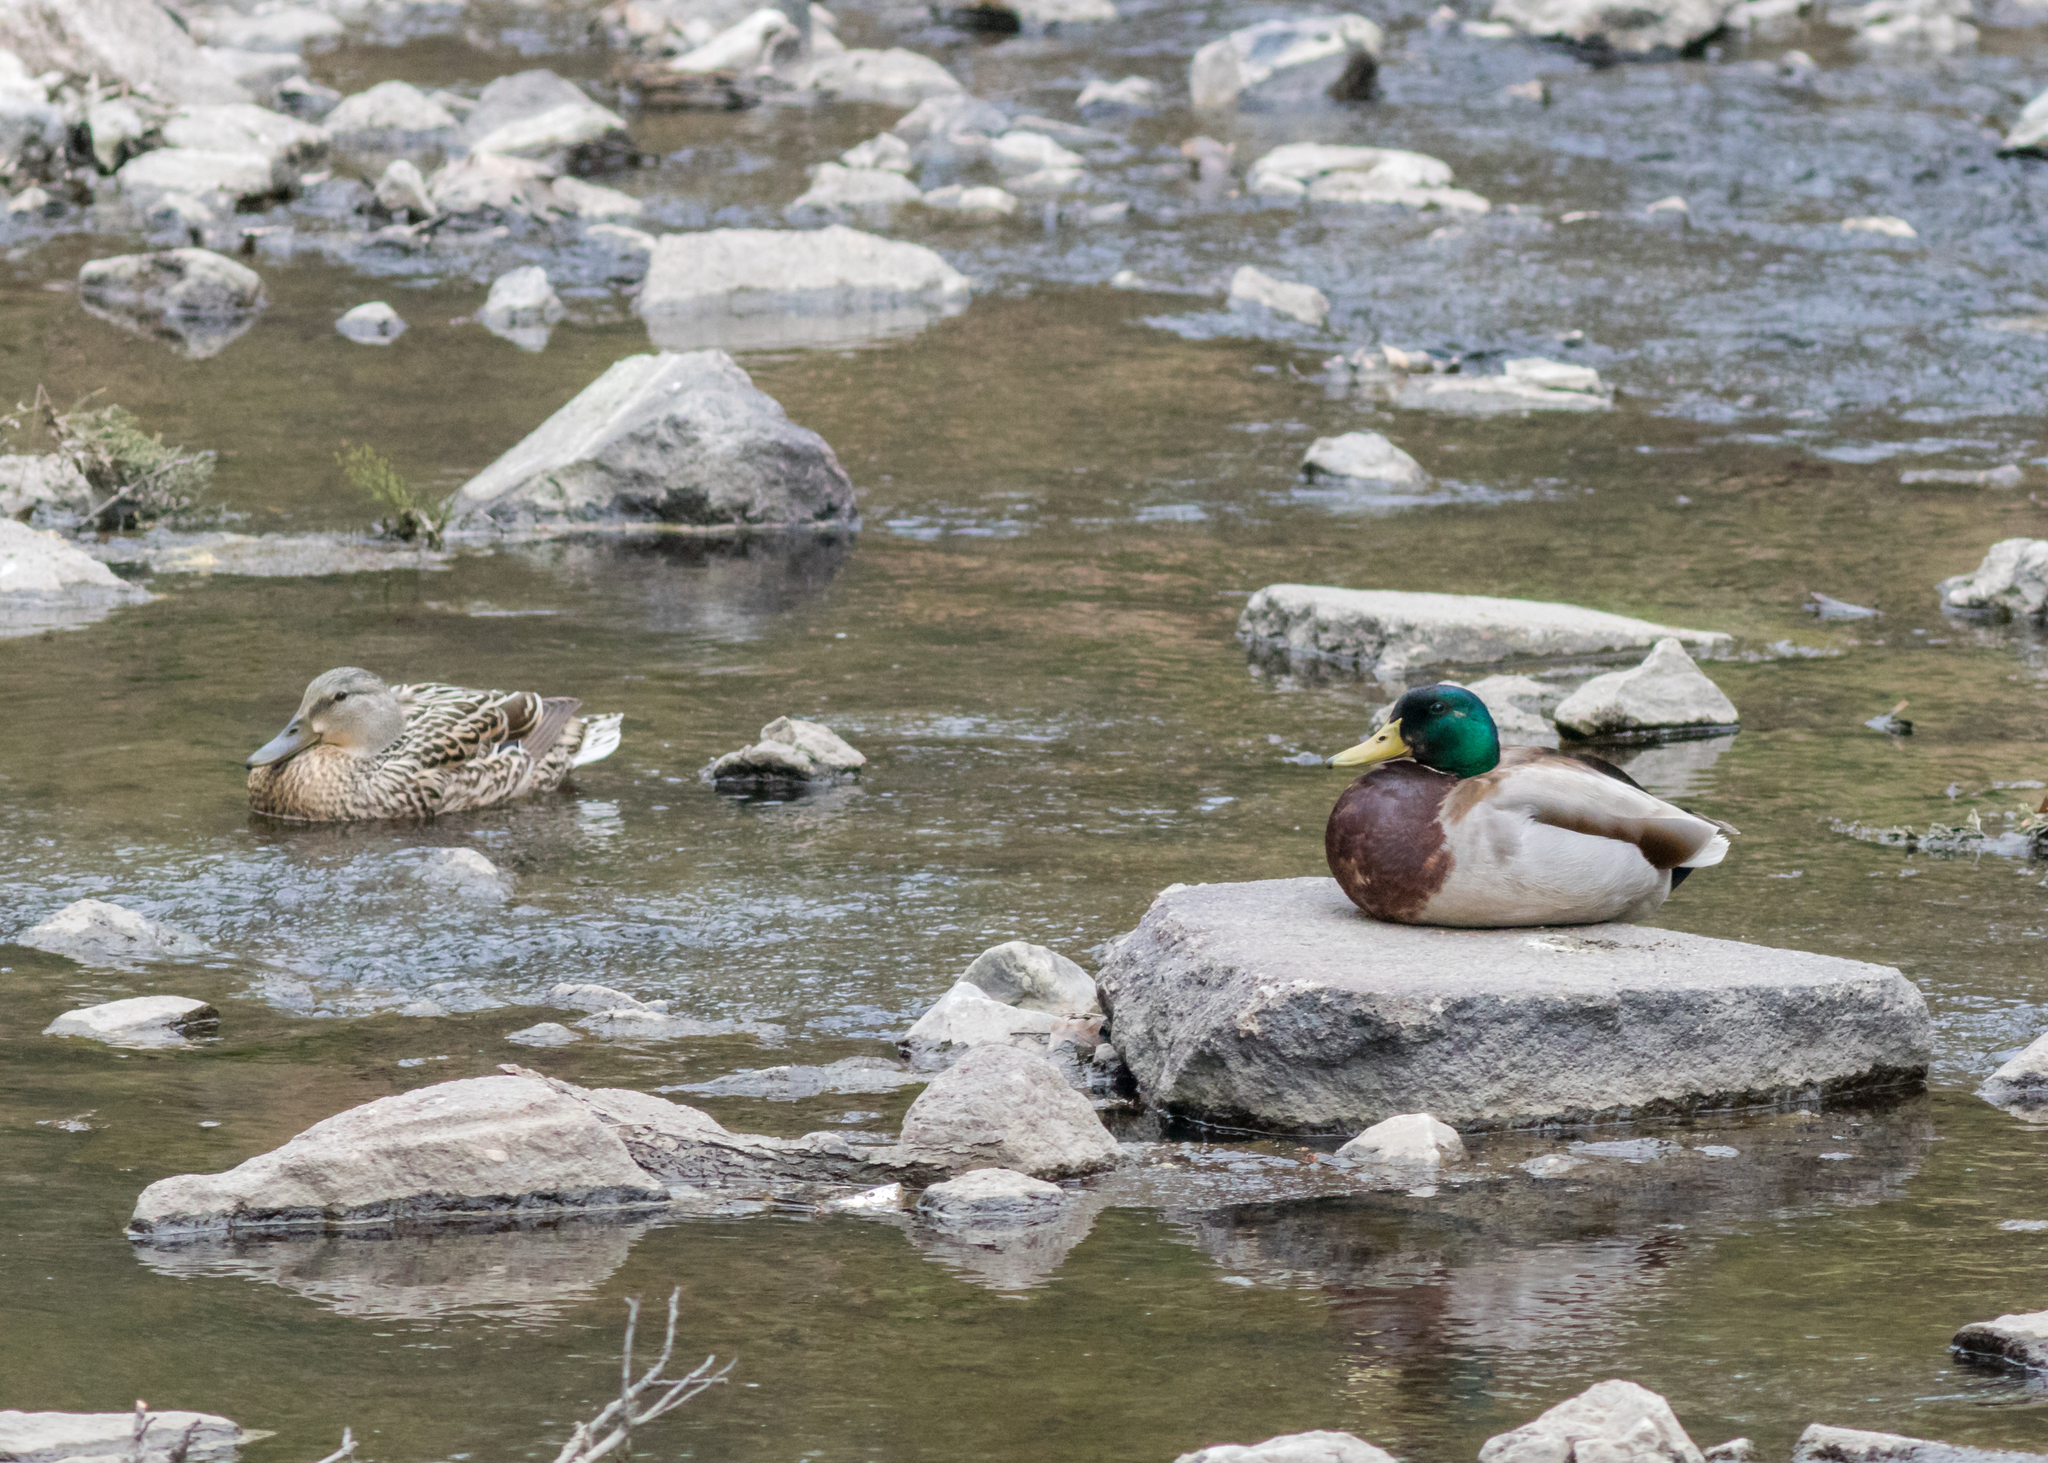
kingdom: Animalia
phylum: Chordata
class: Aves
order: Anseriformes
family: Anatidae
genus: Anas
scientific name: Anas platyrhynchos
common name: Mallard
